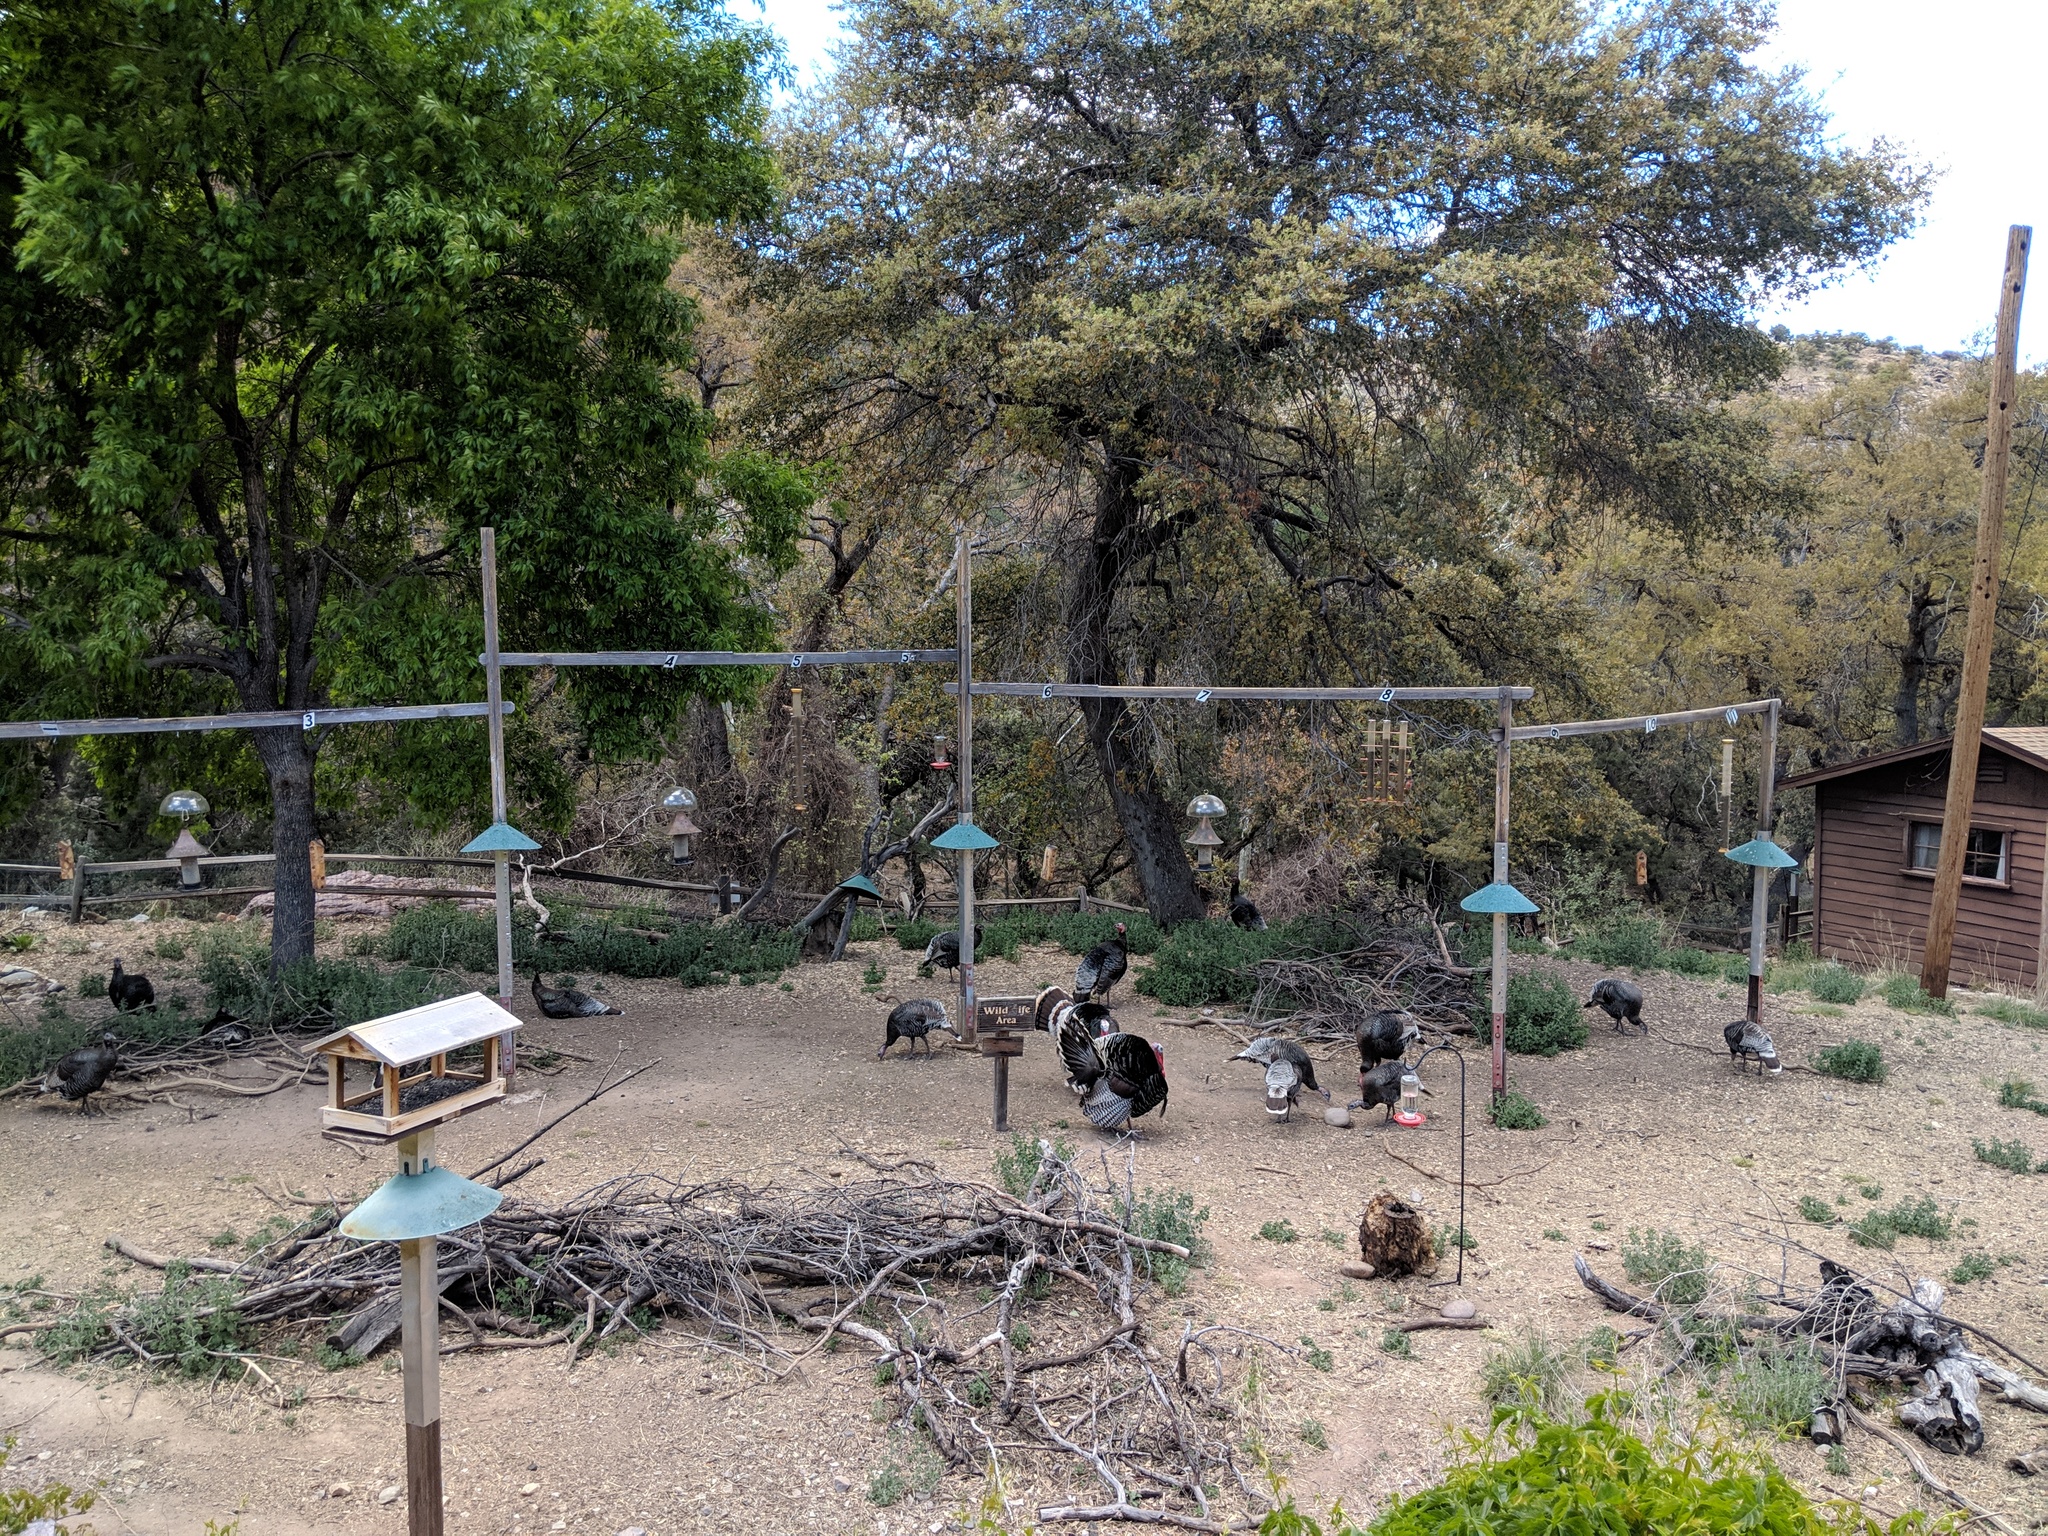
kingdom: Animalia
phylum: Chordata
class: Aves
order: Galliformes
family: Phasianidae
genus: Meleagris
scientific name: Meleagris gallopavo
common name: Wild turkey
